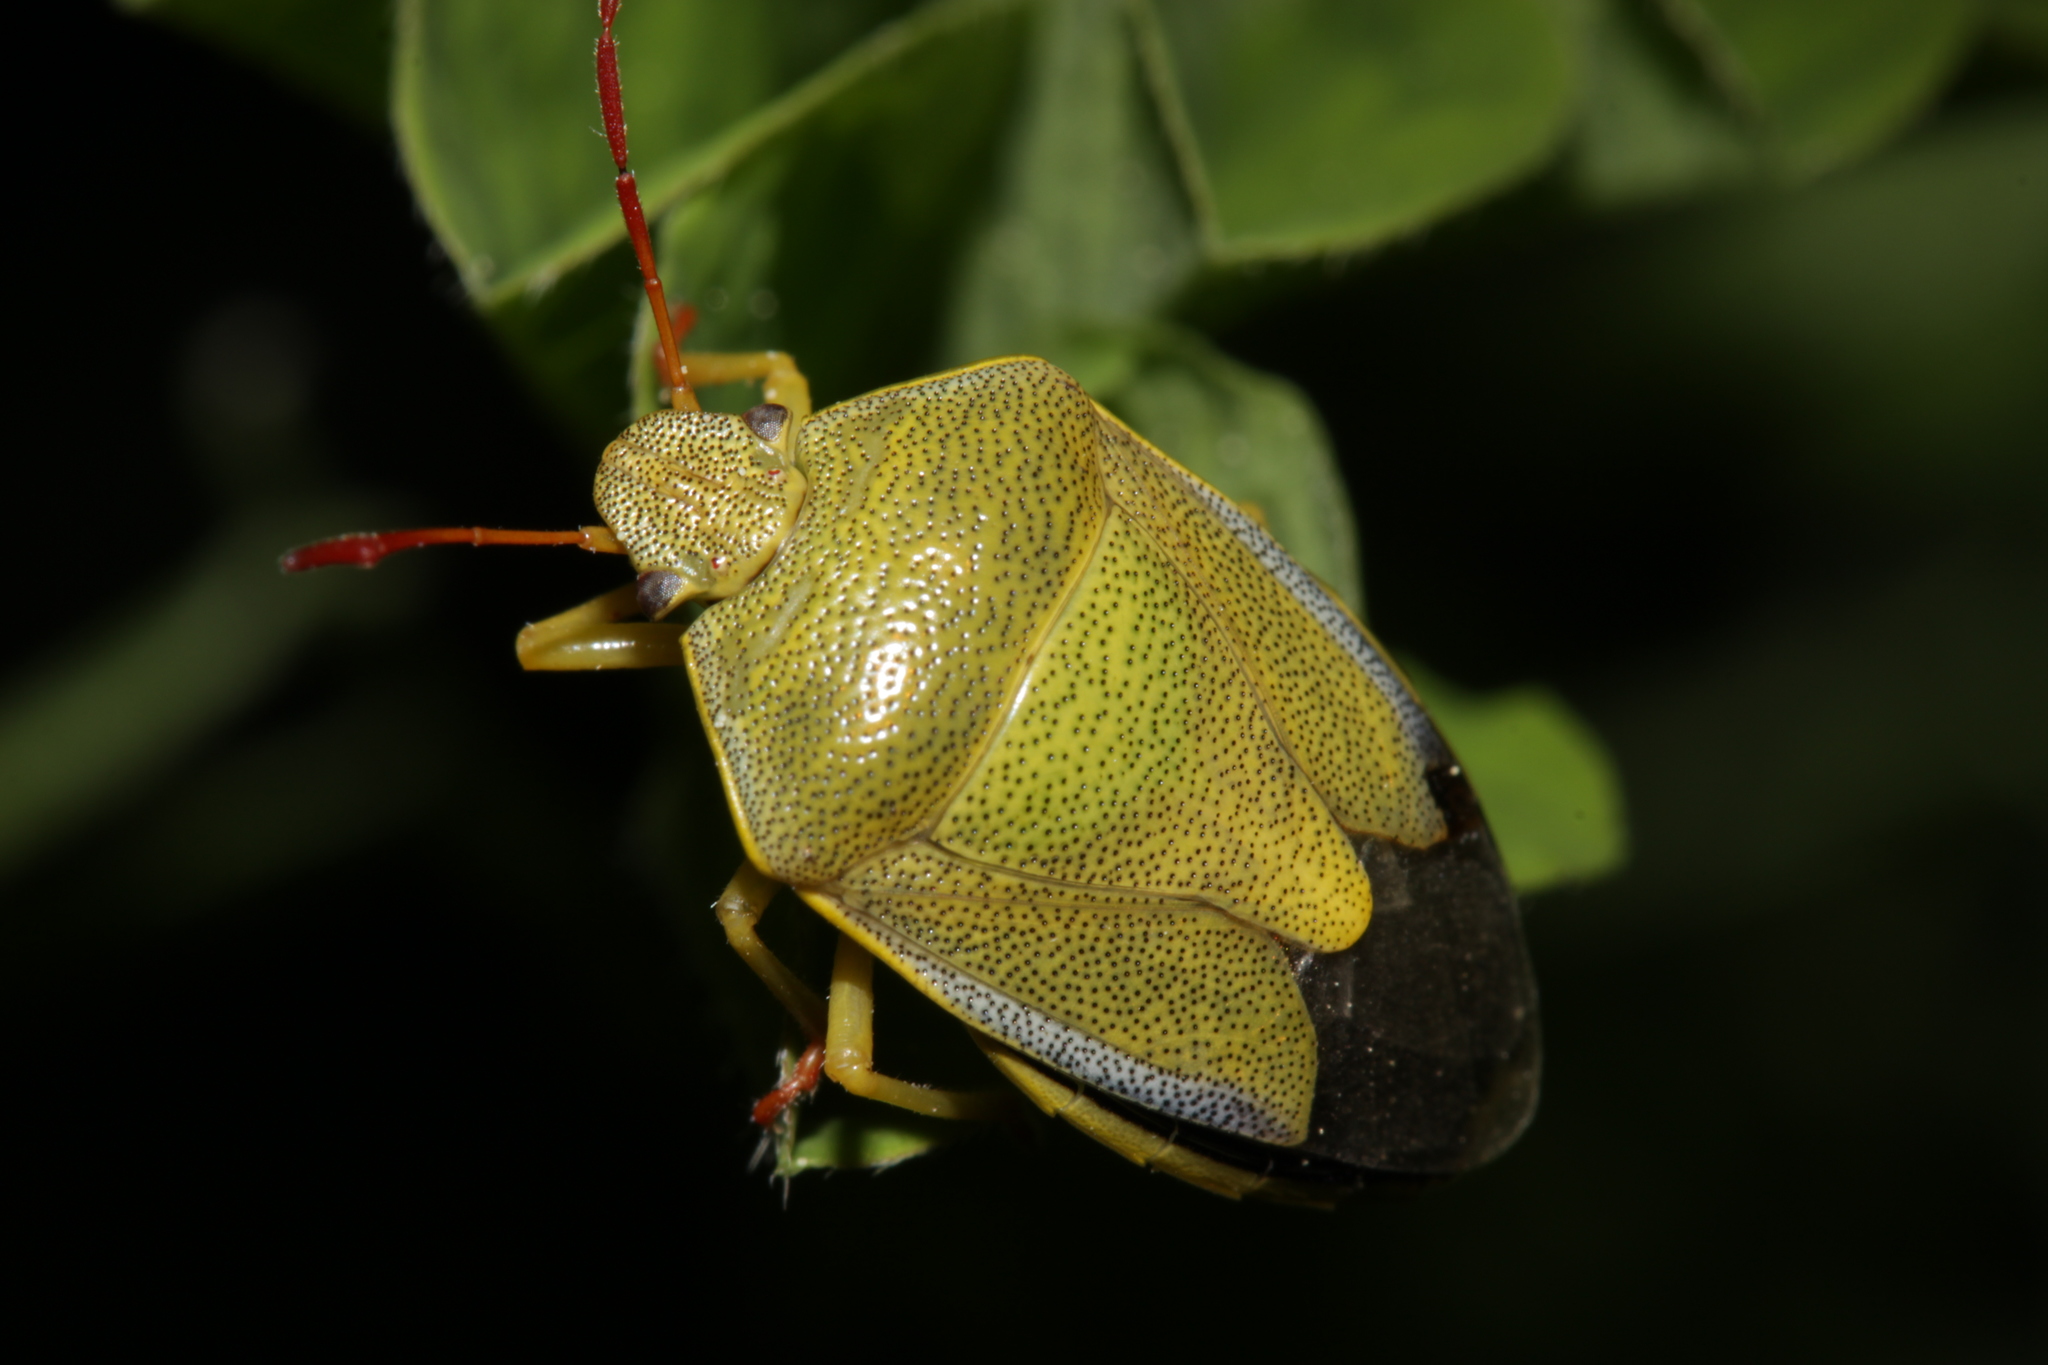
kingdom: Animalia
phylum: Arthropoda
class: Insecta
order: Hemiptera
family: Pentatomidae
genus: Piezodorus
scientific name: Piezodorus lituratus
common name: Stink bug
